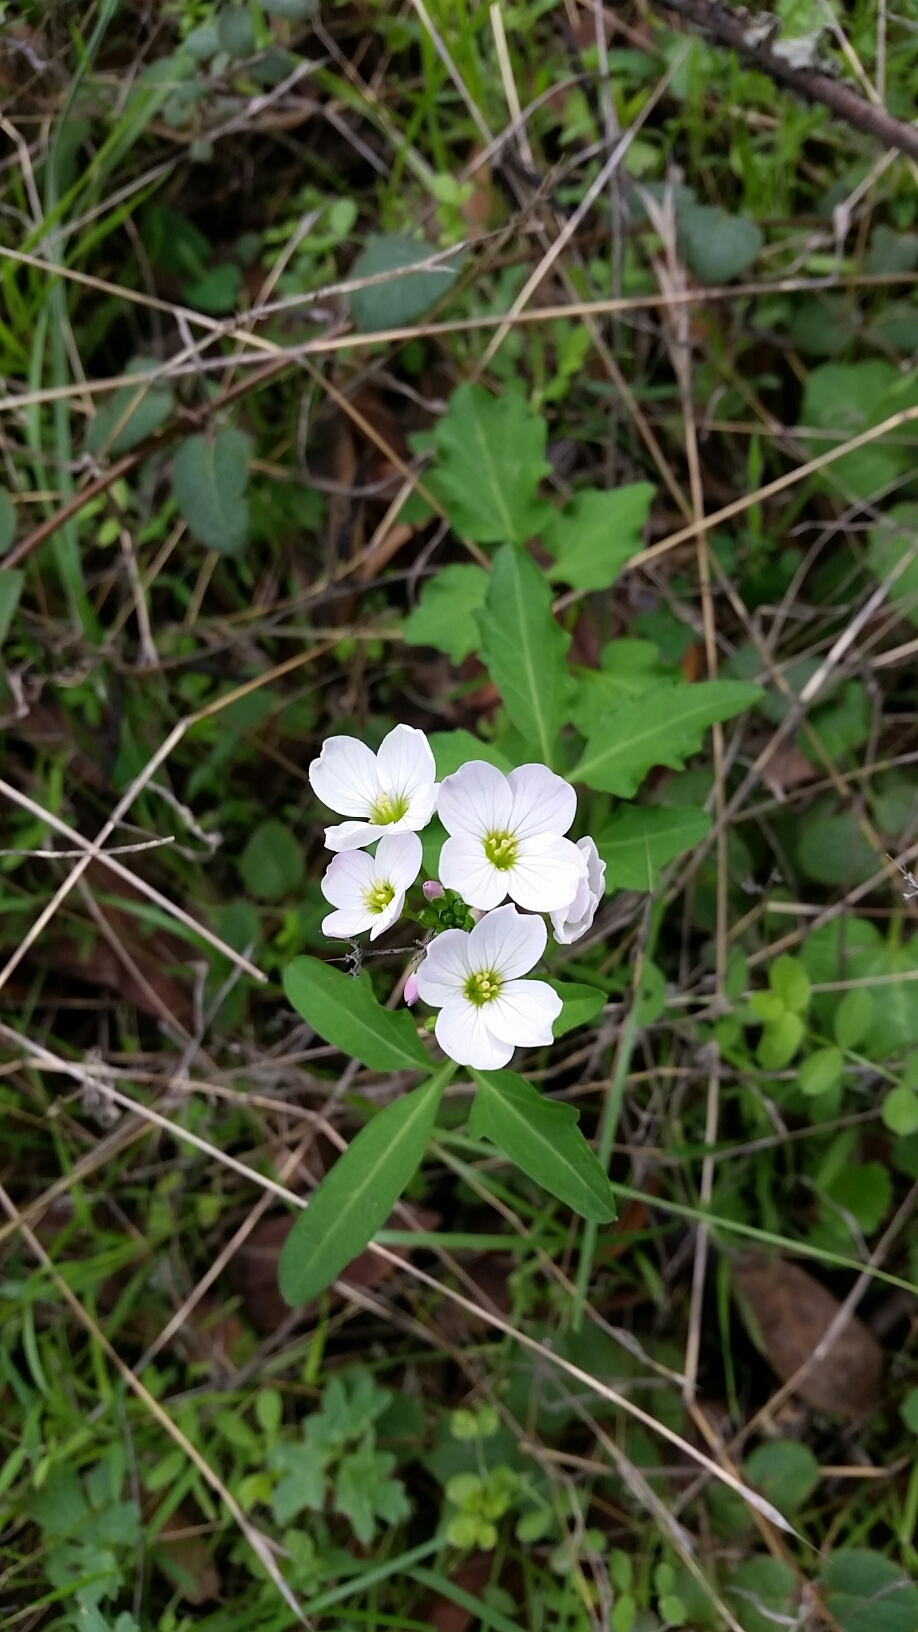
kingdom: Plantae
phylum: Tracheophyta
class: Magnoliopsida
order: Brassicales
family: Brassicaceae
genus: Cardamine
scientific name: Cardamine californica
